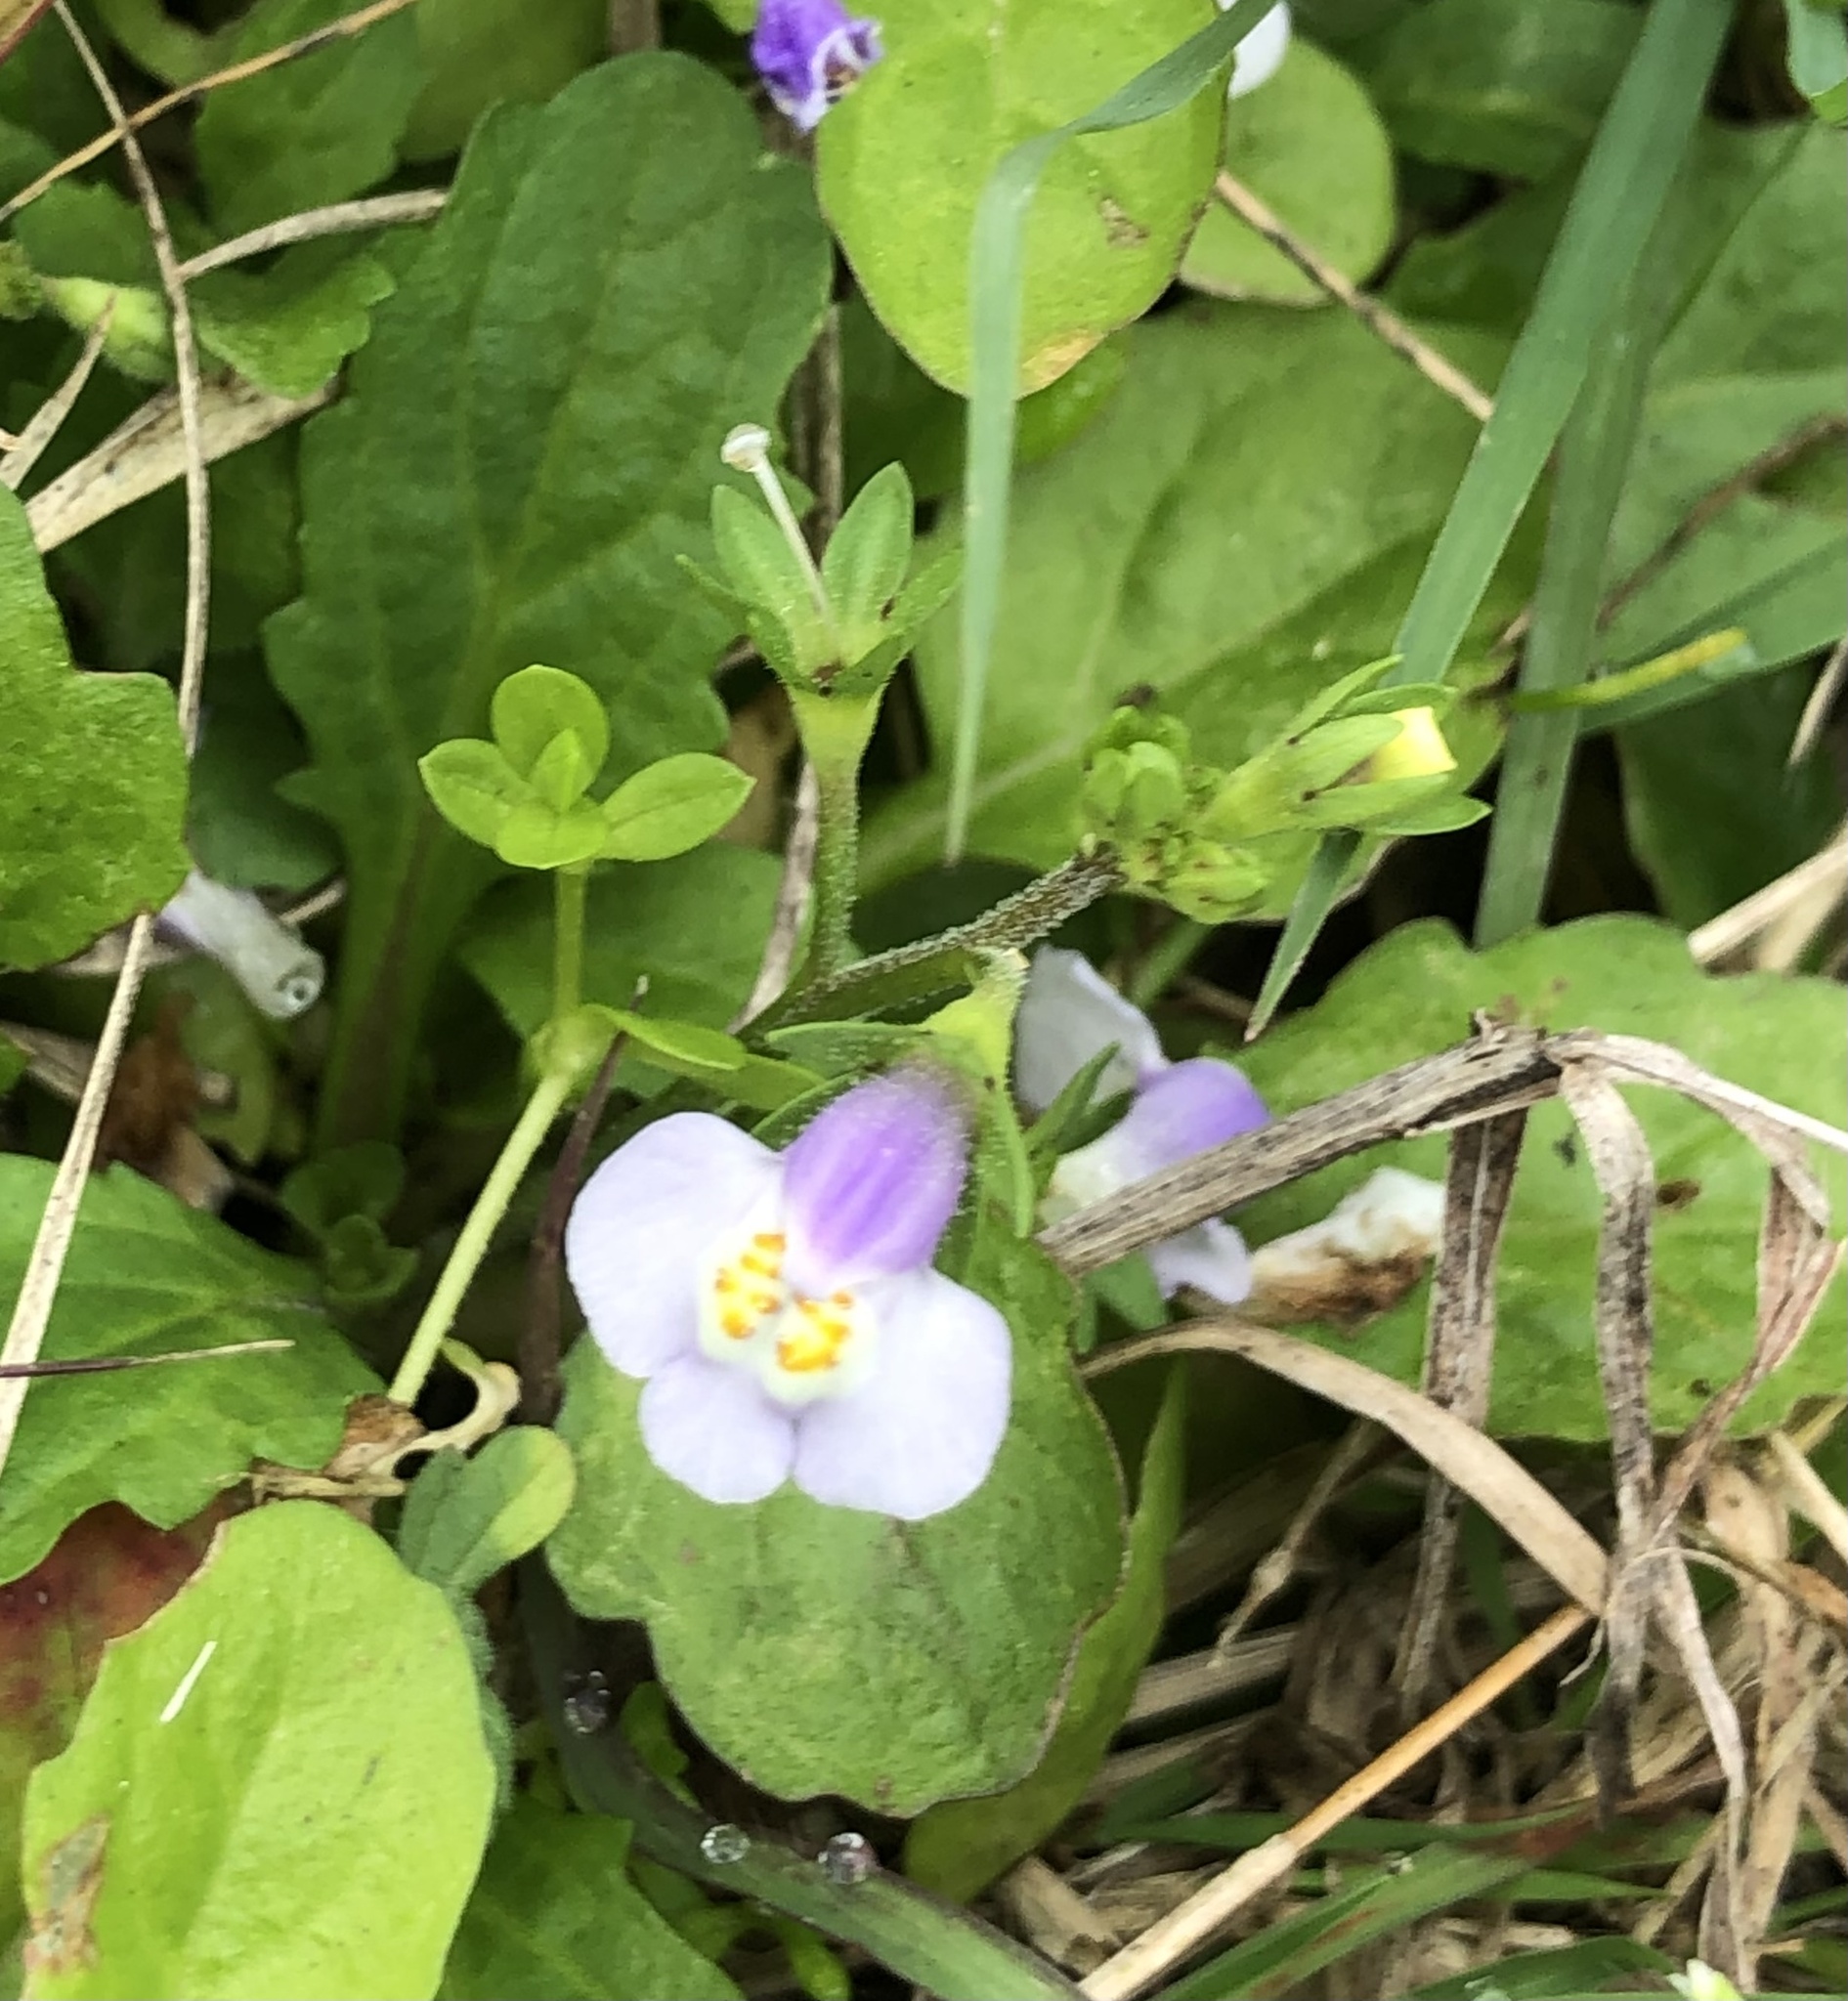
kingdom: Plantae
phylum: Tracheophyta
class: Magnoliopsida
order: Lamiales
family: Mazaceae
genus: Mazus
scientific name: Mazus pumilus
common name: Japanese mazus
